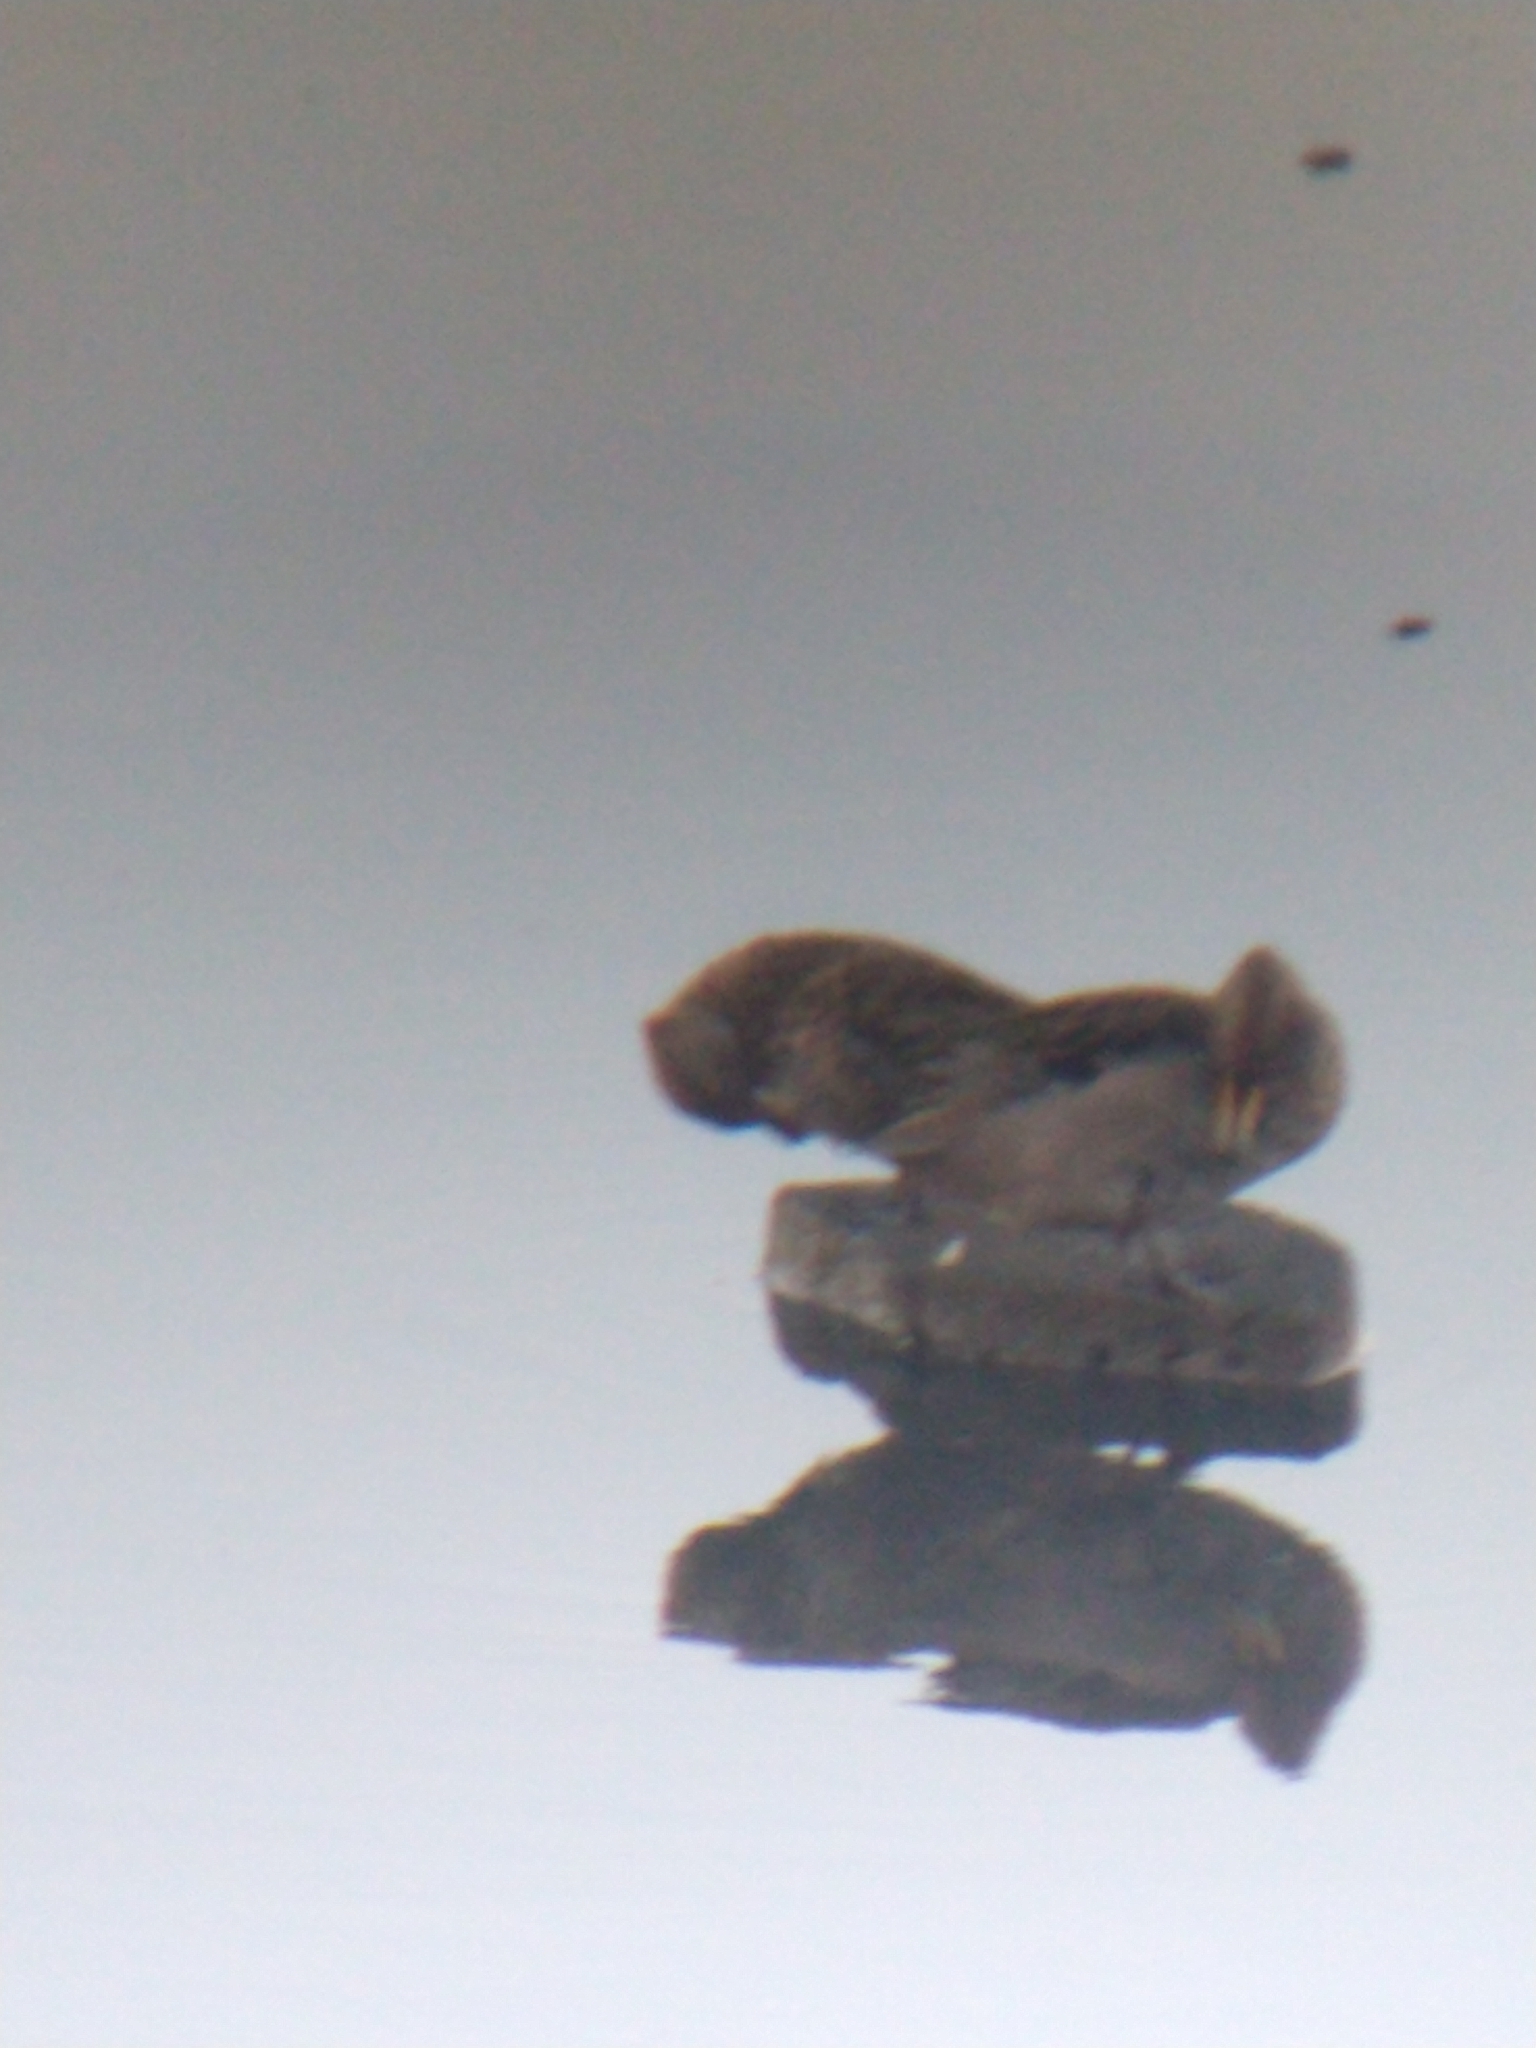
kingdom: Animalia
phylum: Chordata
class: Aves
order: Anseriformes
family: Anatidae
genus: Anas
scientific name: Anas flavirostris
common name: Yellow-billed teal
